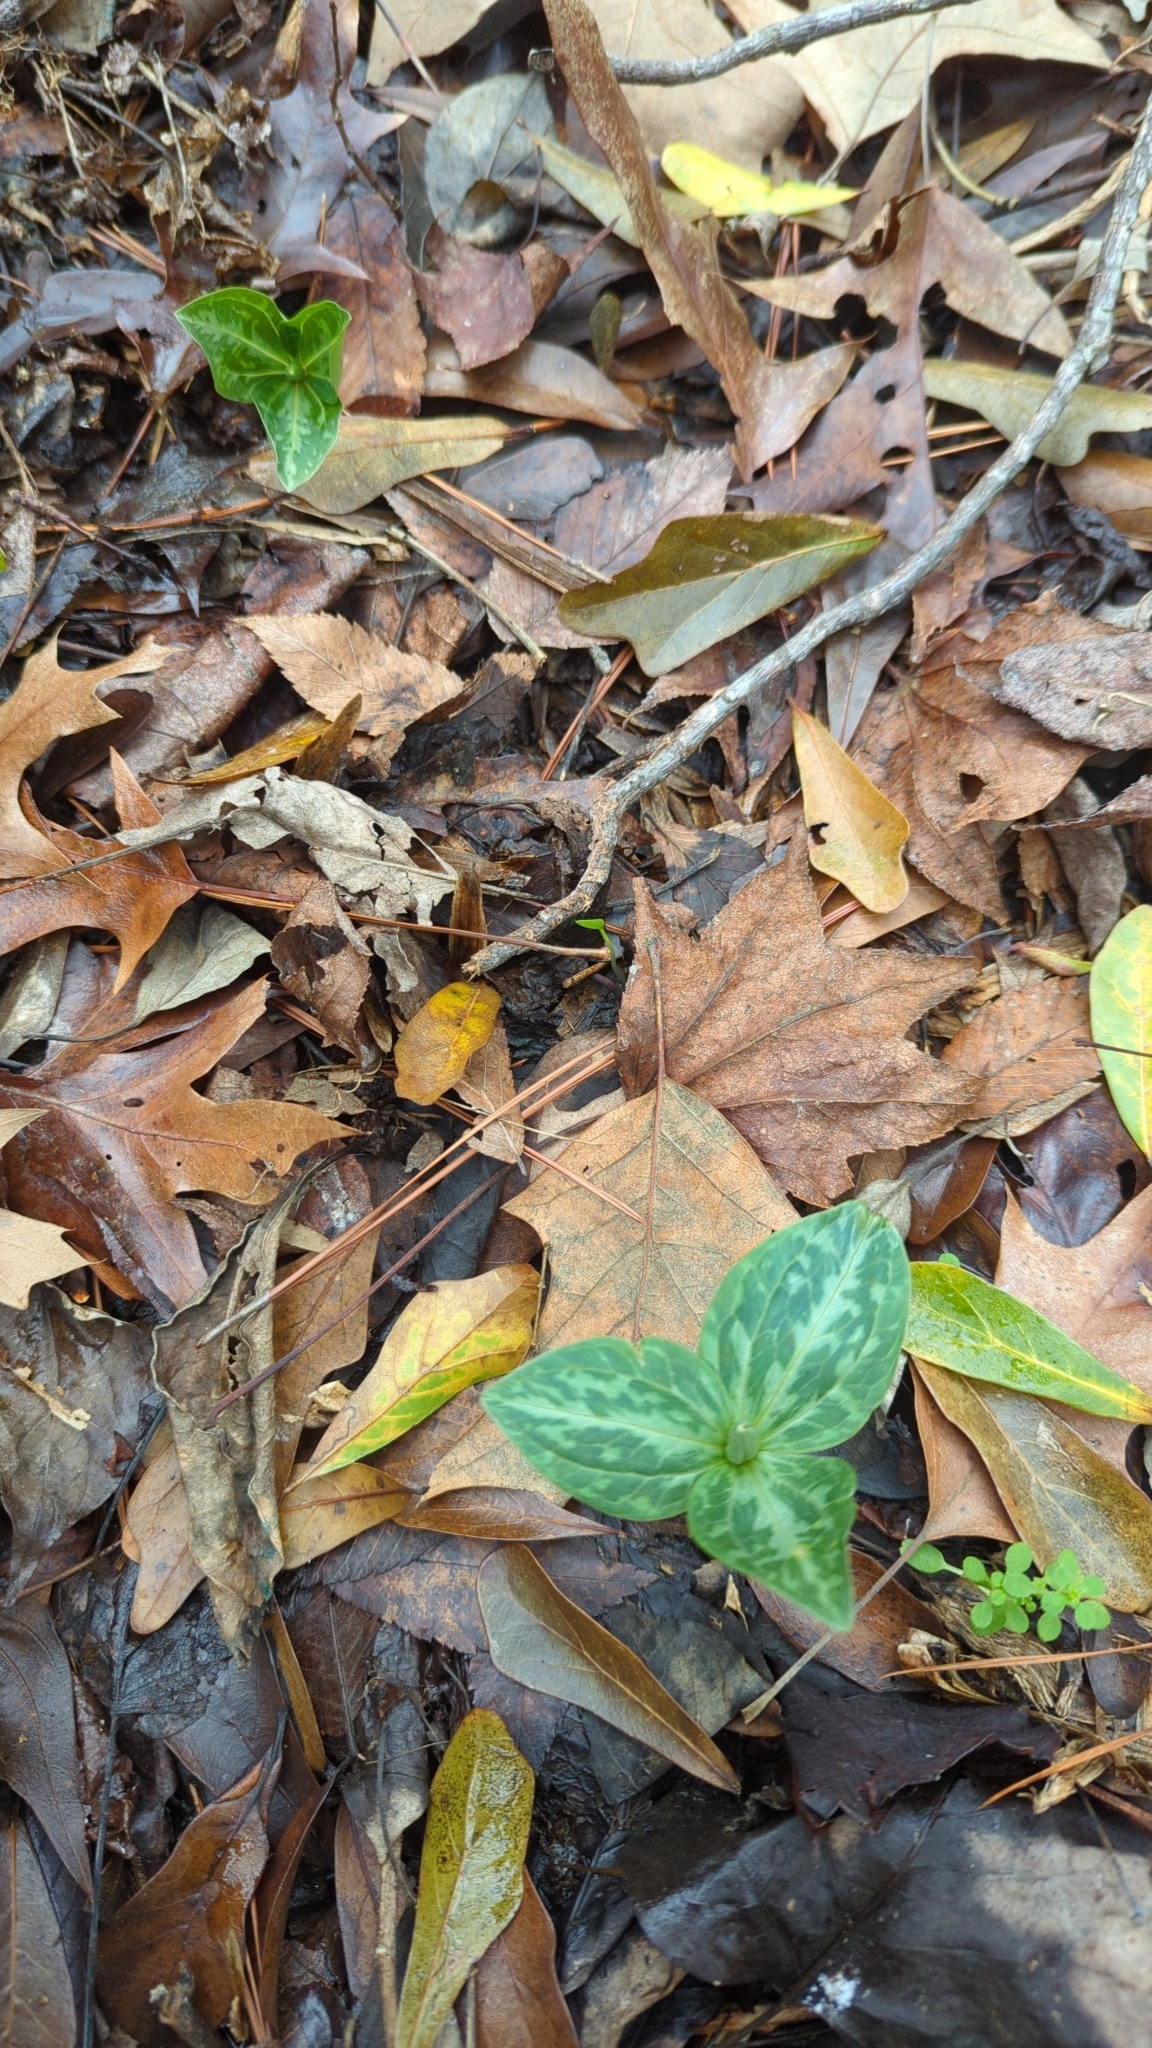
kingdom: Plantae
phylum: Tracheophyta
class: Liliopsida
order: Liliales
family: Melanthiaceae
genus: Trillium
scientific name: Trillium foetidissimum
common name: Mississippi river trillium
